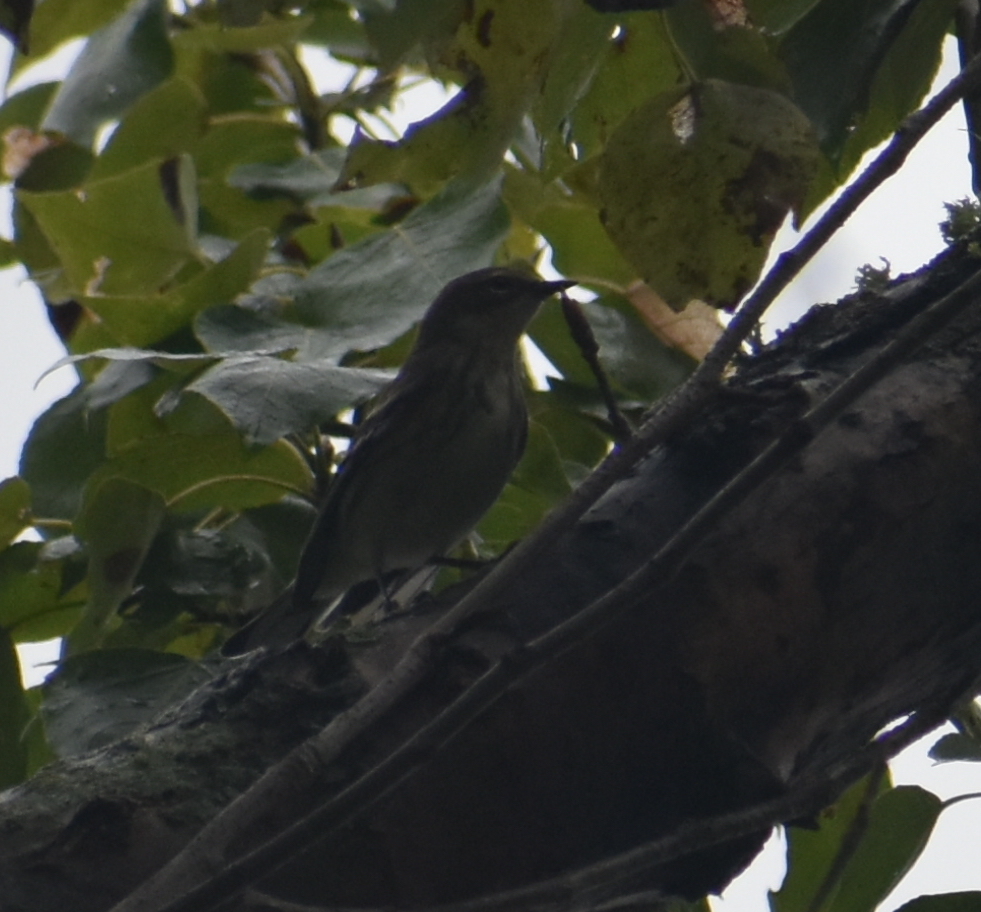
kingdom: Animalia
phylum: Chordata
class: Aves
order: Passeriformes
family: Parulidae
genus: Setophaga
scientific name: Setophaga coronata
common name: Myrtle warbler
